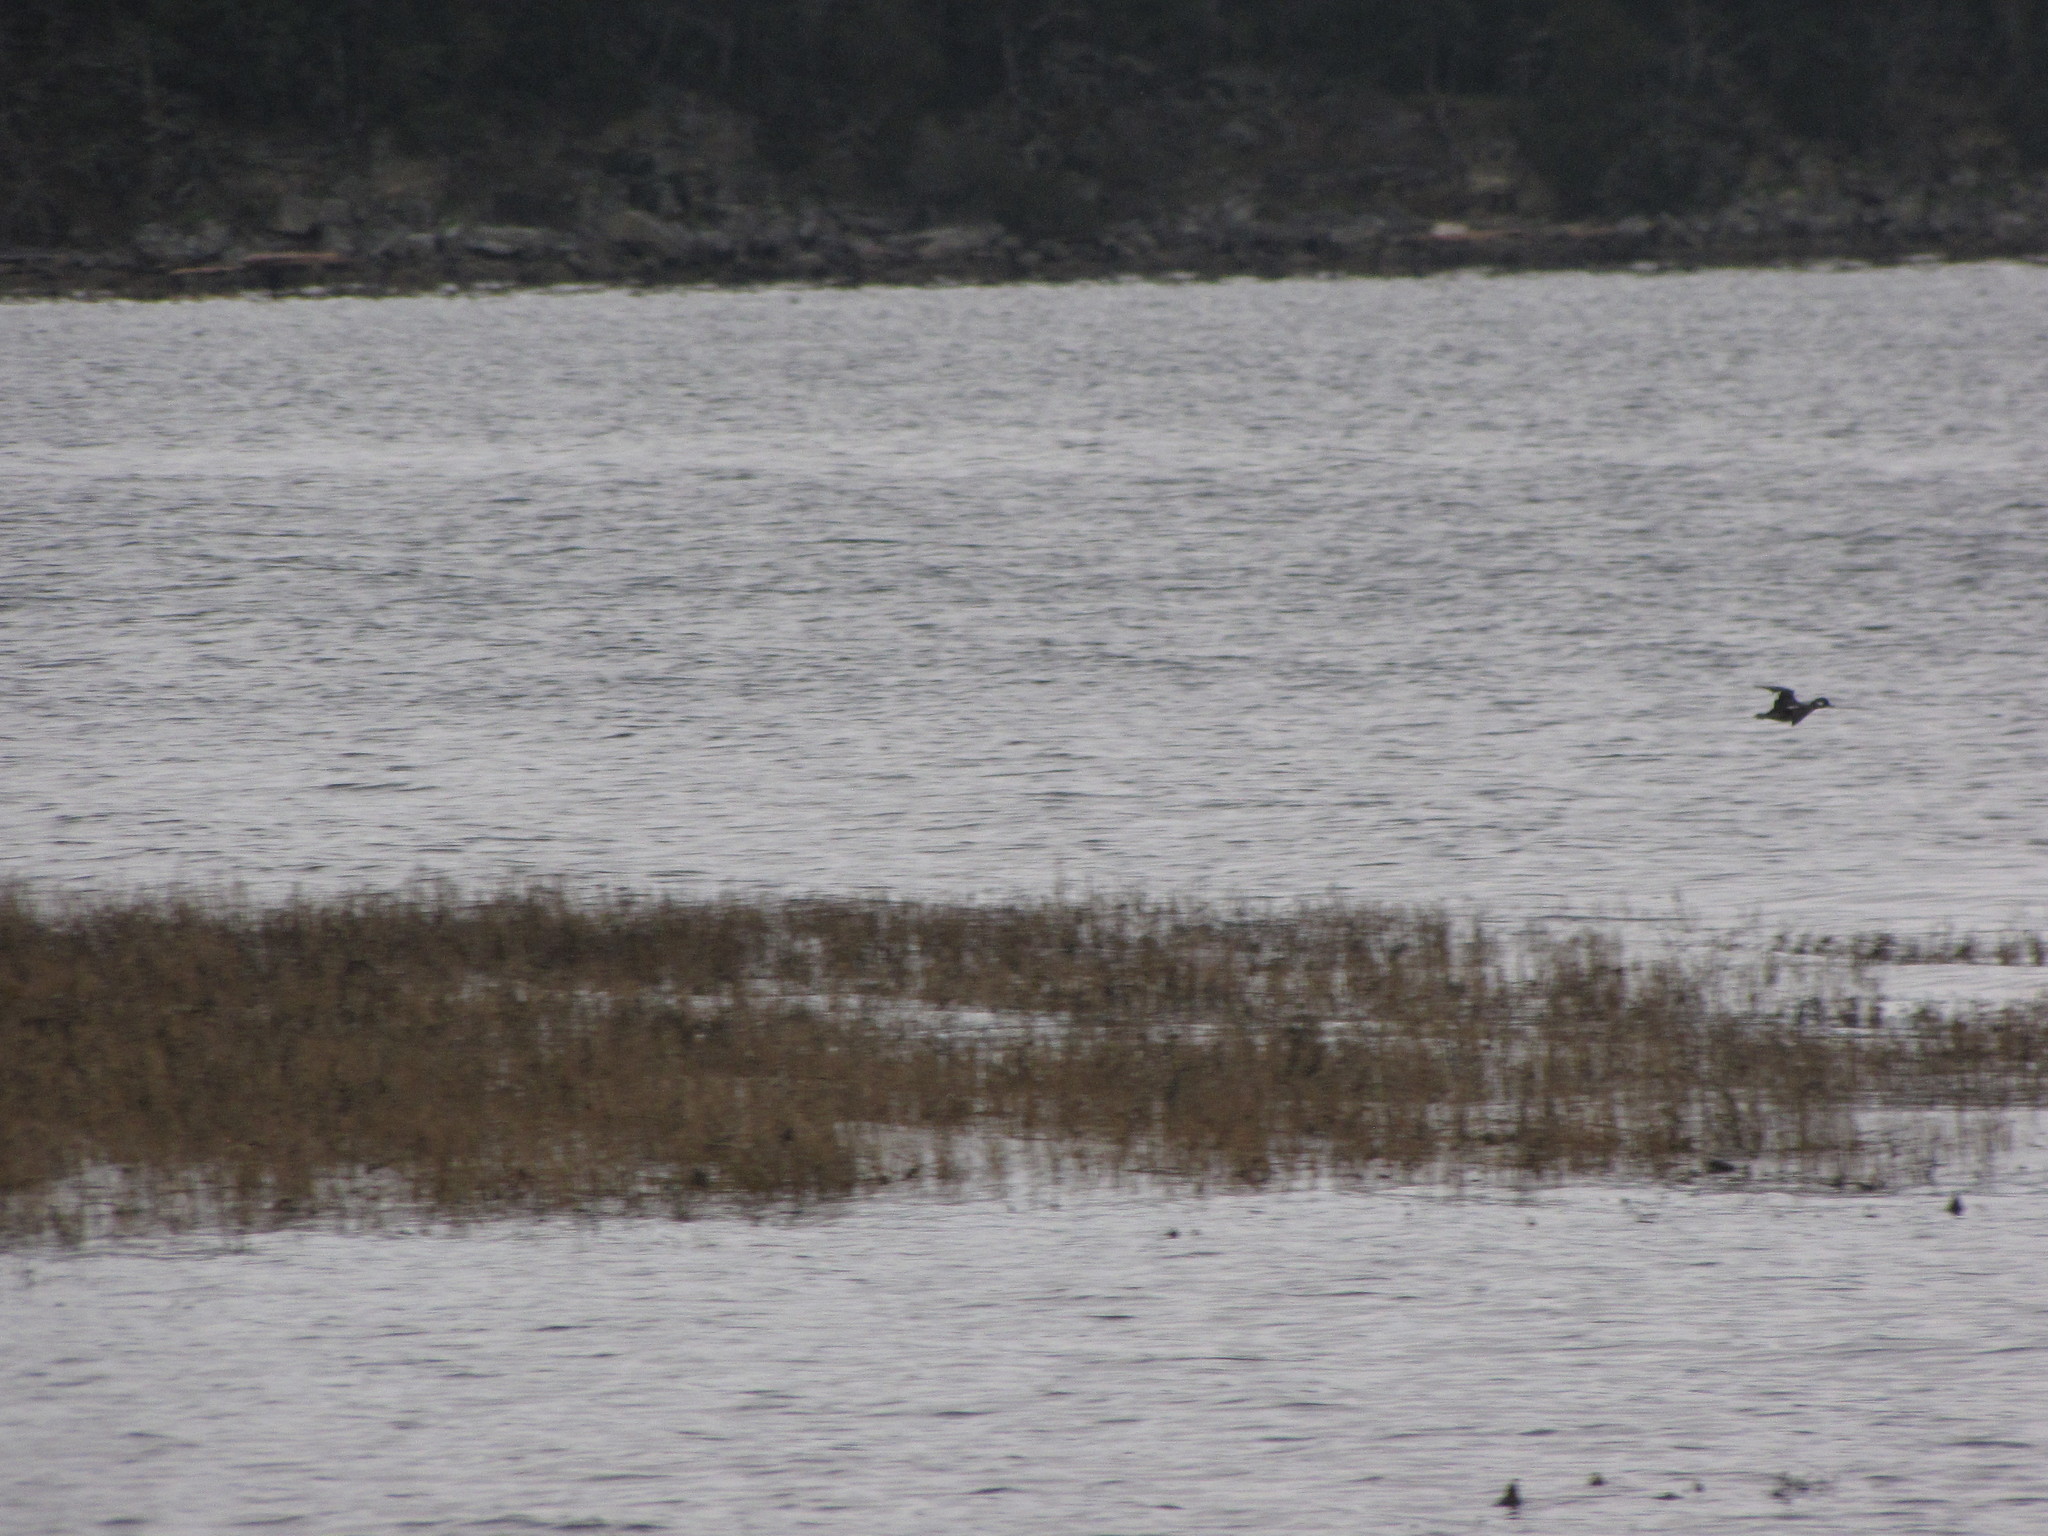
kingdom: Animalia
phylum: Chordata
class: Aves
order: Anseriformes
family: Anatidae
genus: Bucephala
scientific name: Bucephala albeola
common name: Bufflehead
